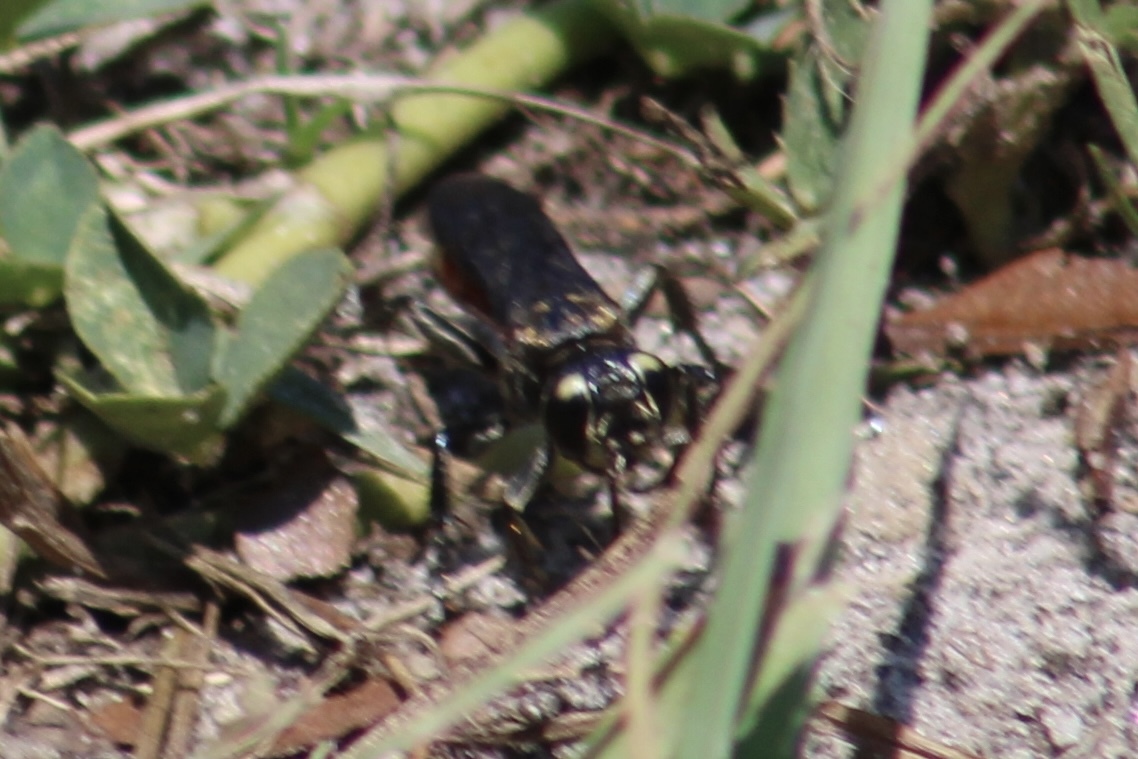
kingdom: Animalia
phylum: Arthropoda
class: Insecta
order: Hymenoptera
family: Crabronidae
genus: Larra
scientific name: Larra bicolor
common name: Wasp
